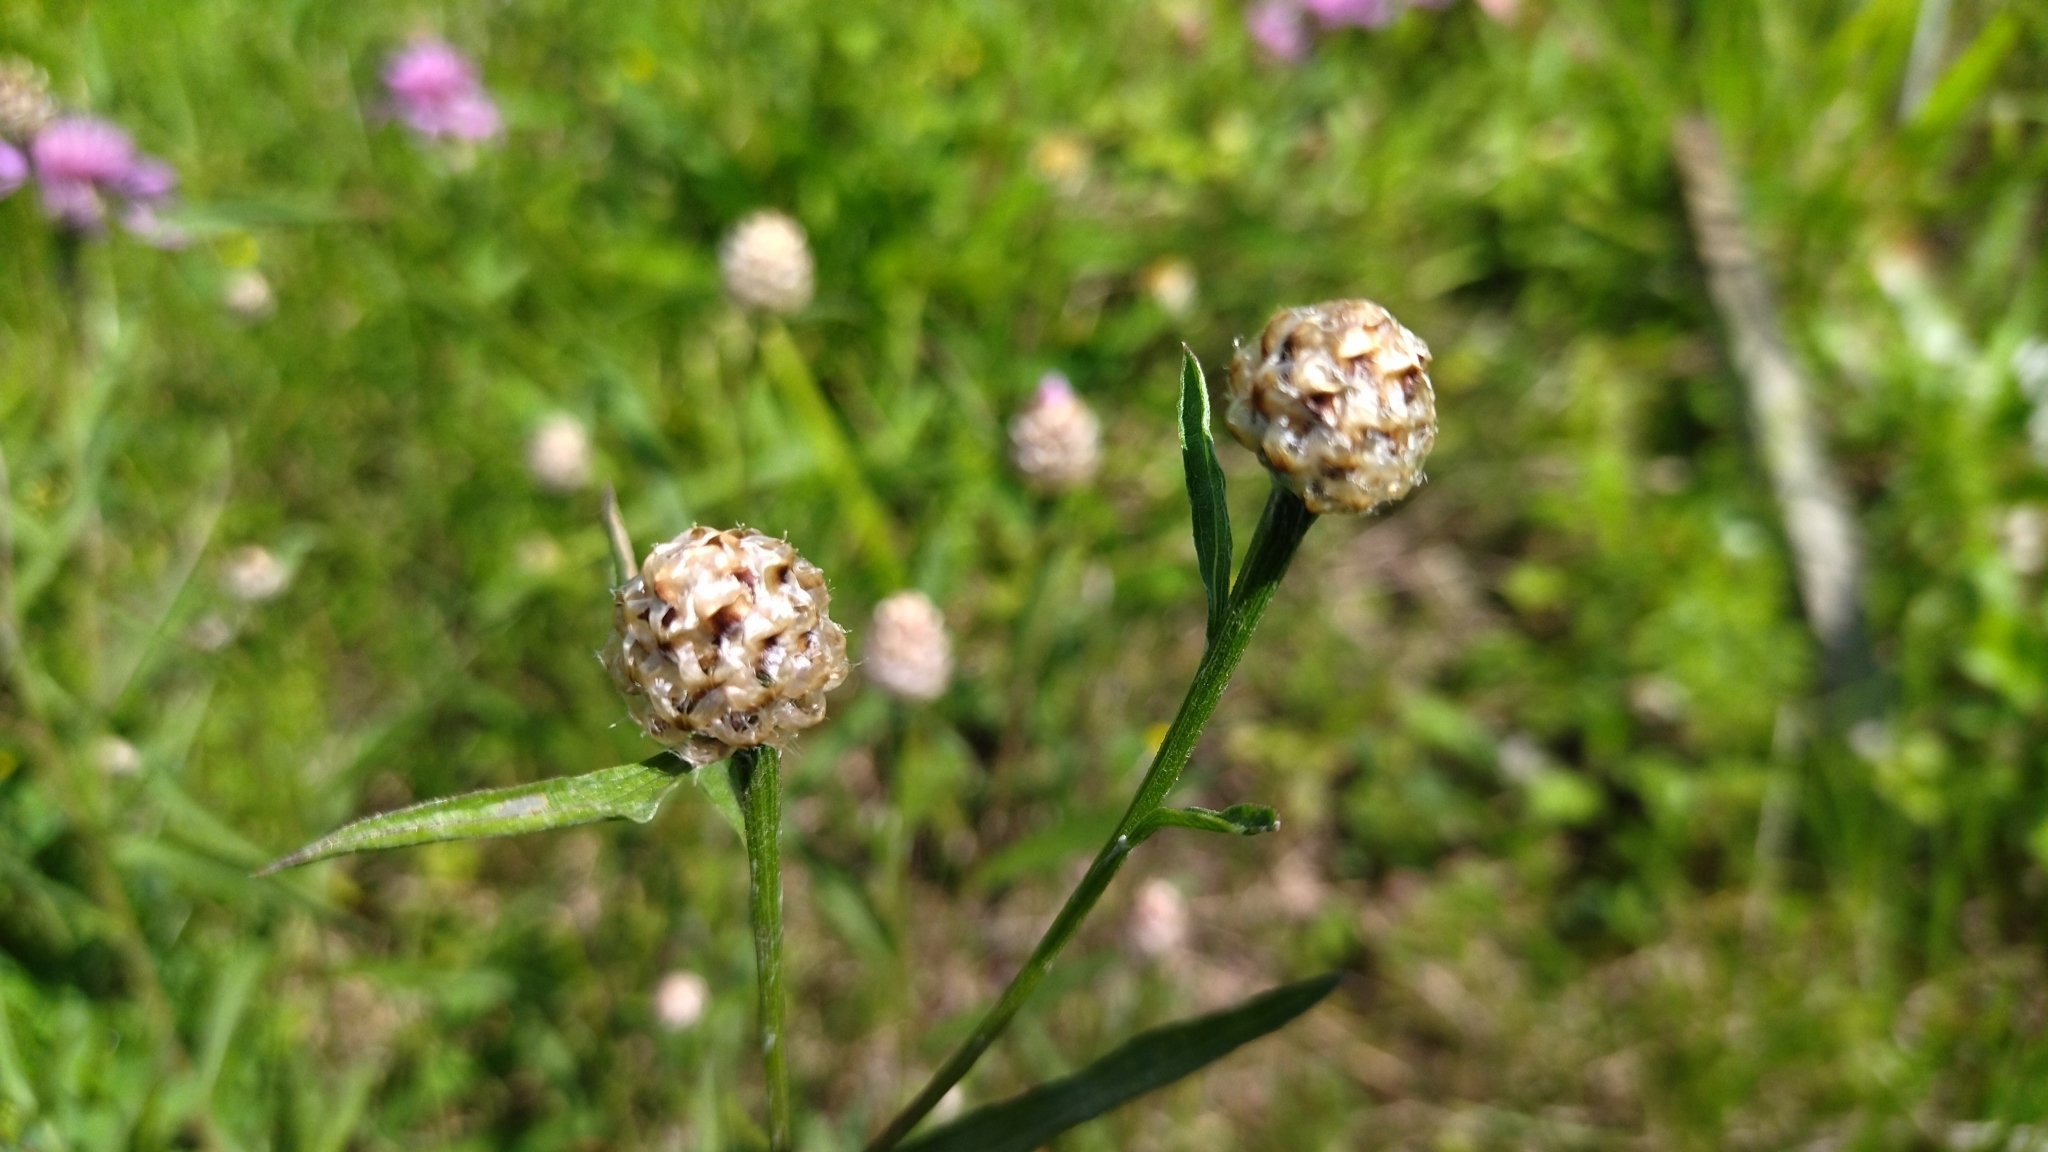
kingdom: Plantae
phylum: Tracheophyta
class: Magnoliopsida
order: Asterales
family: Asteraceae
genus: Centaurea
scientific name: Centaurea jacea
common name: Brown knapweed
